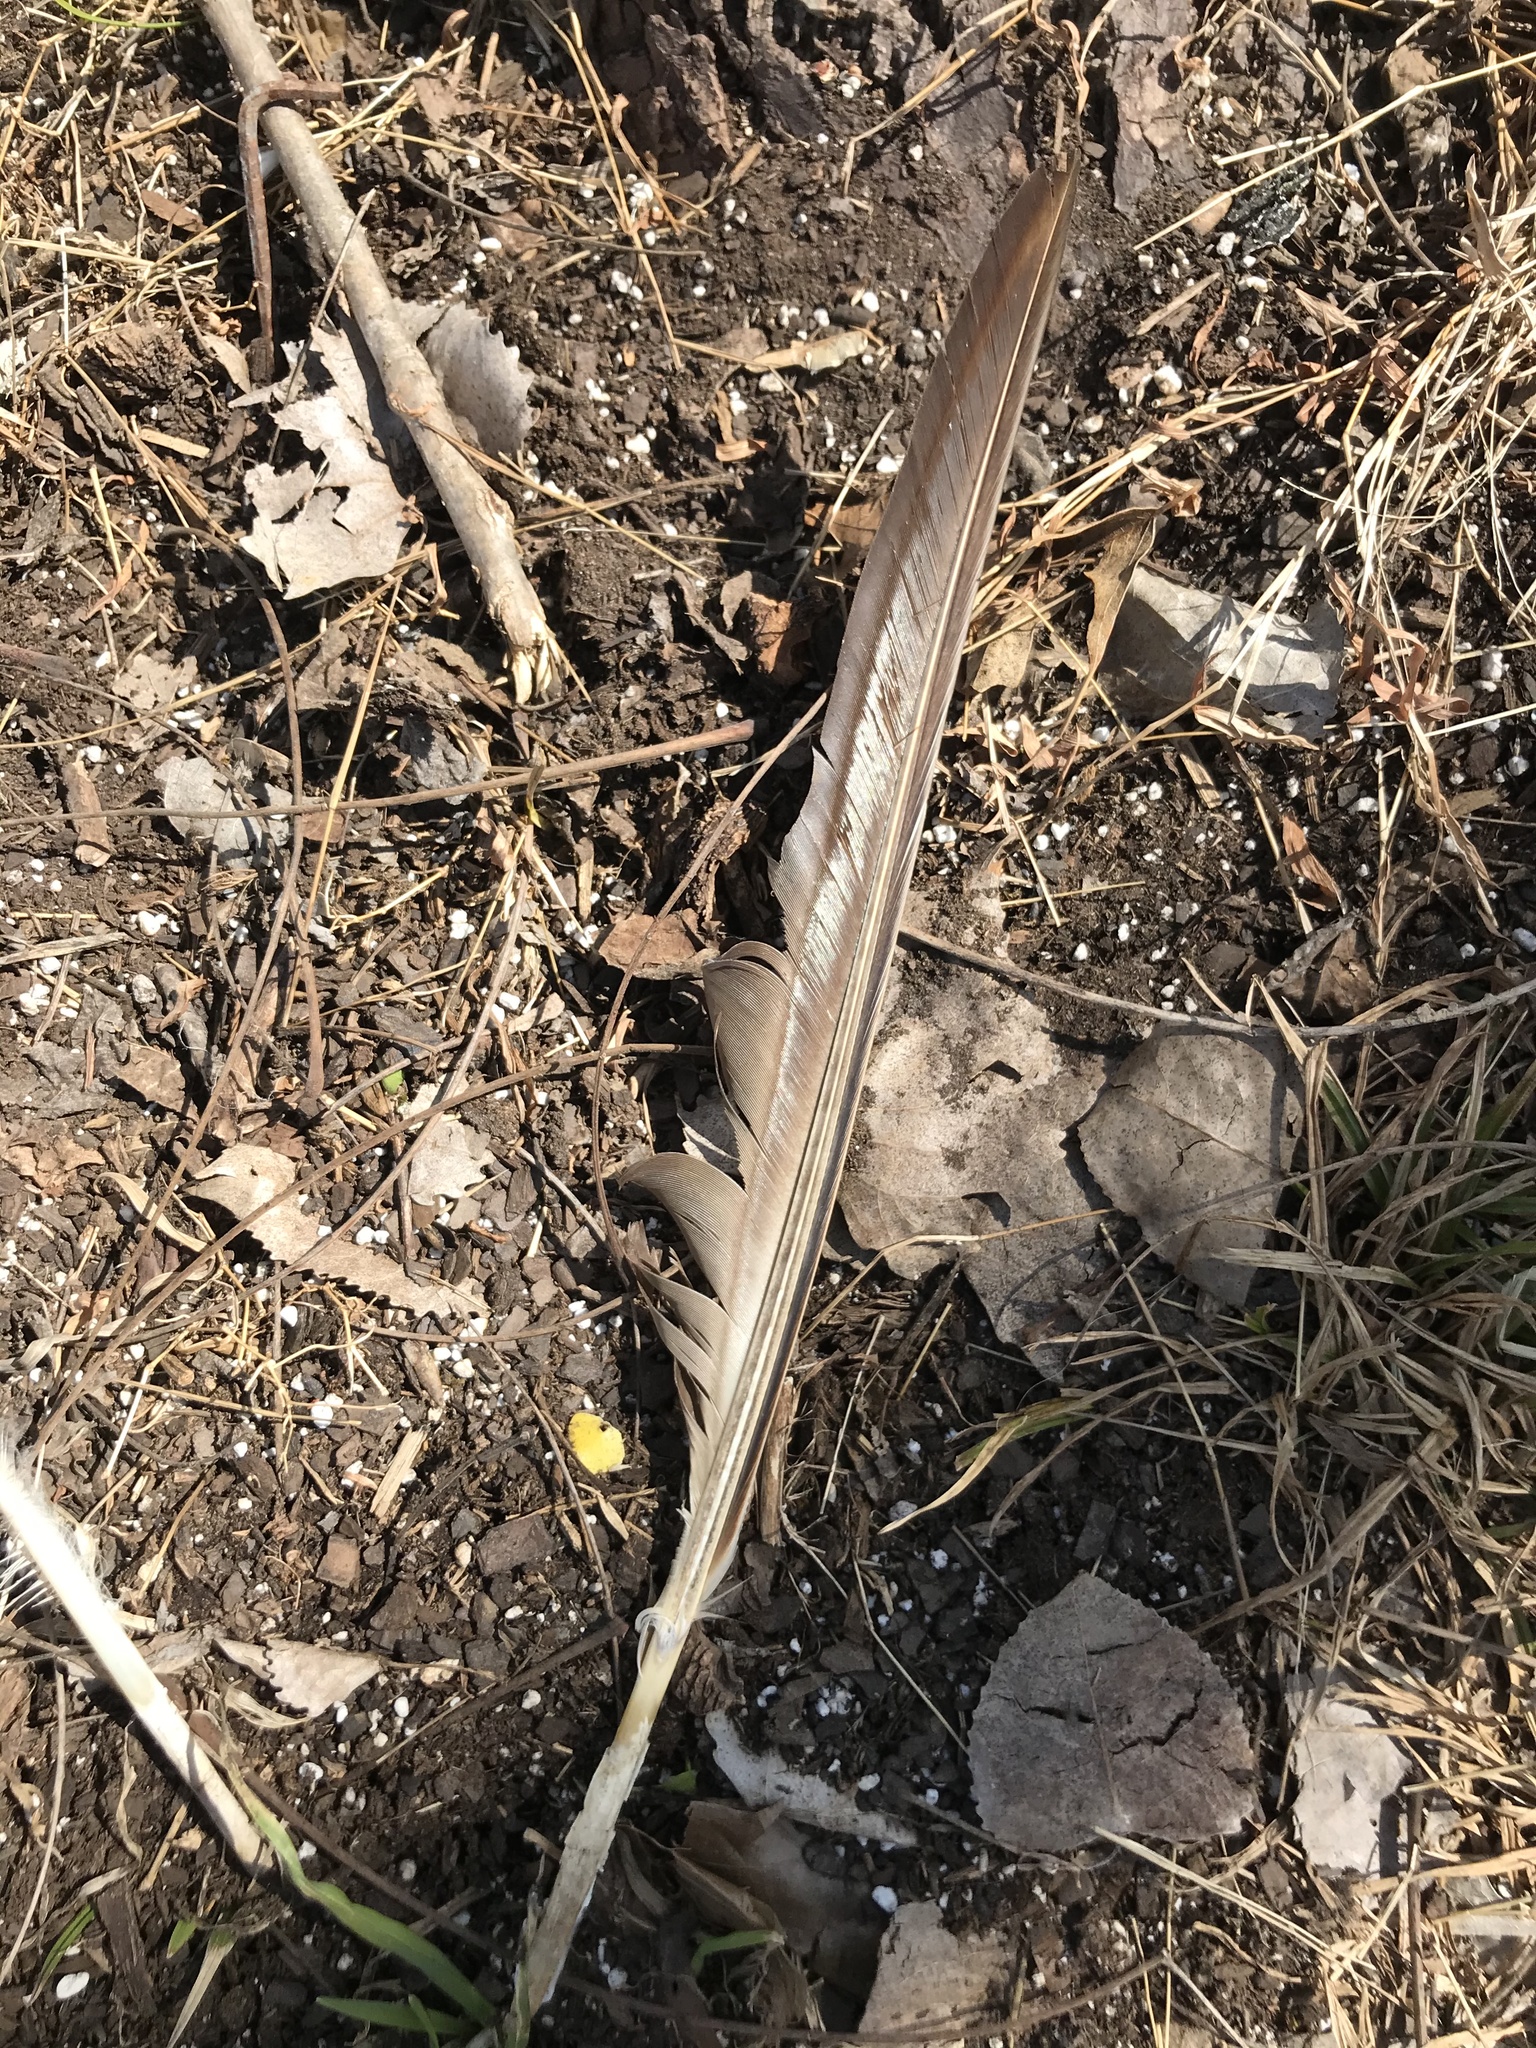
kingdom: Animalia
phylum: Chordata
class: Aves
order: Anseriformes
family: Anatidae
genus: Branta
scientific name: Branta canadensis
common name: Canada goose
